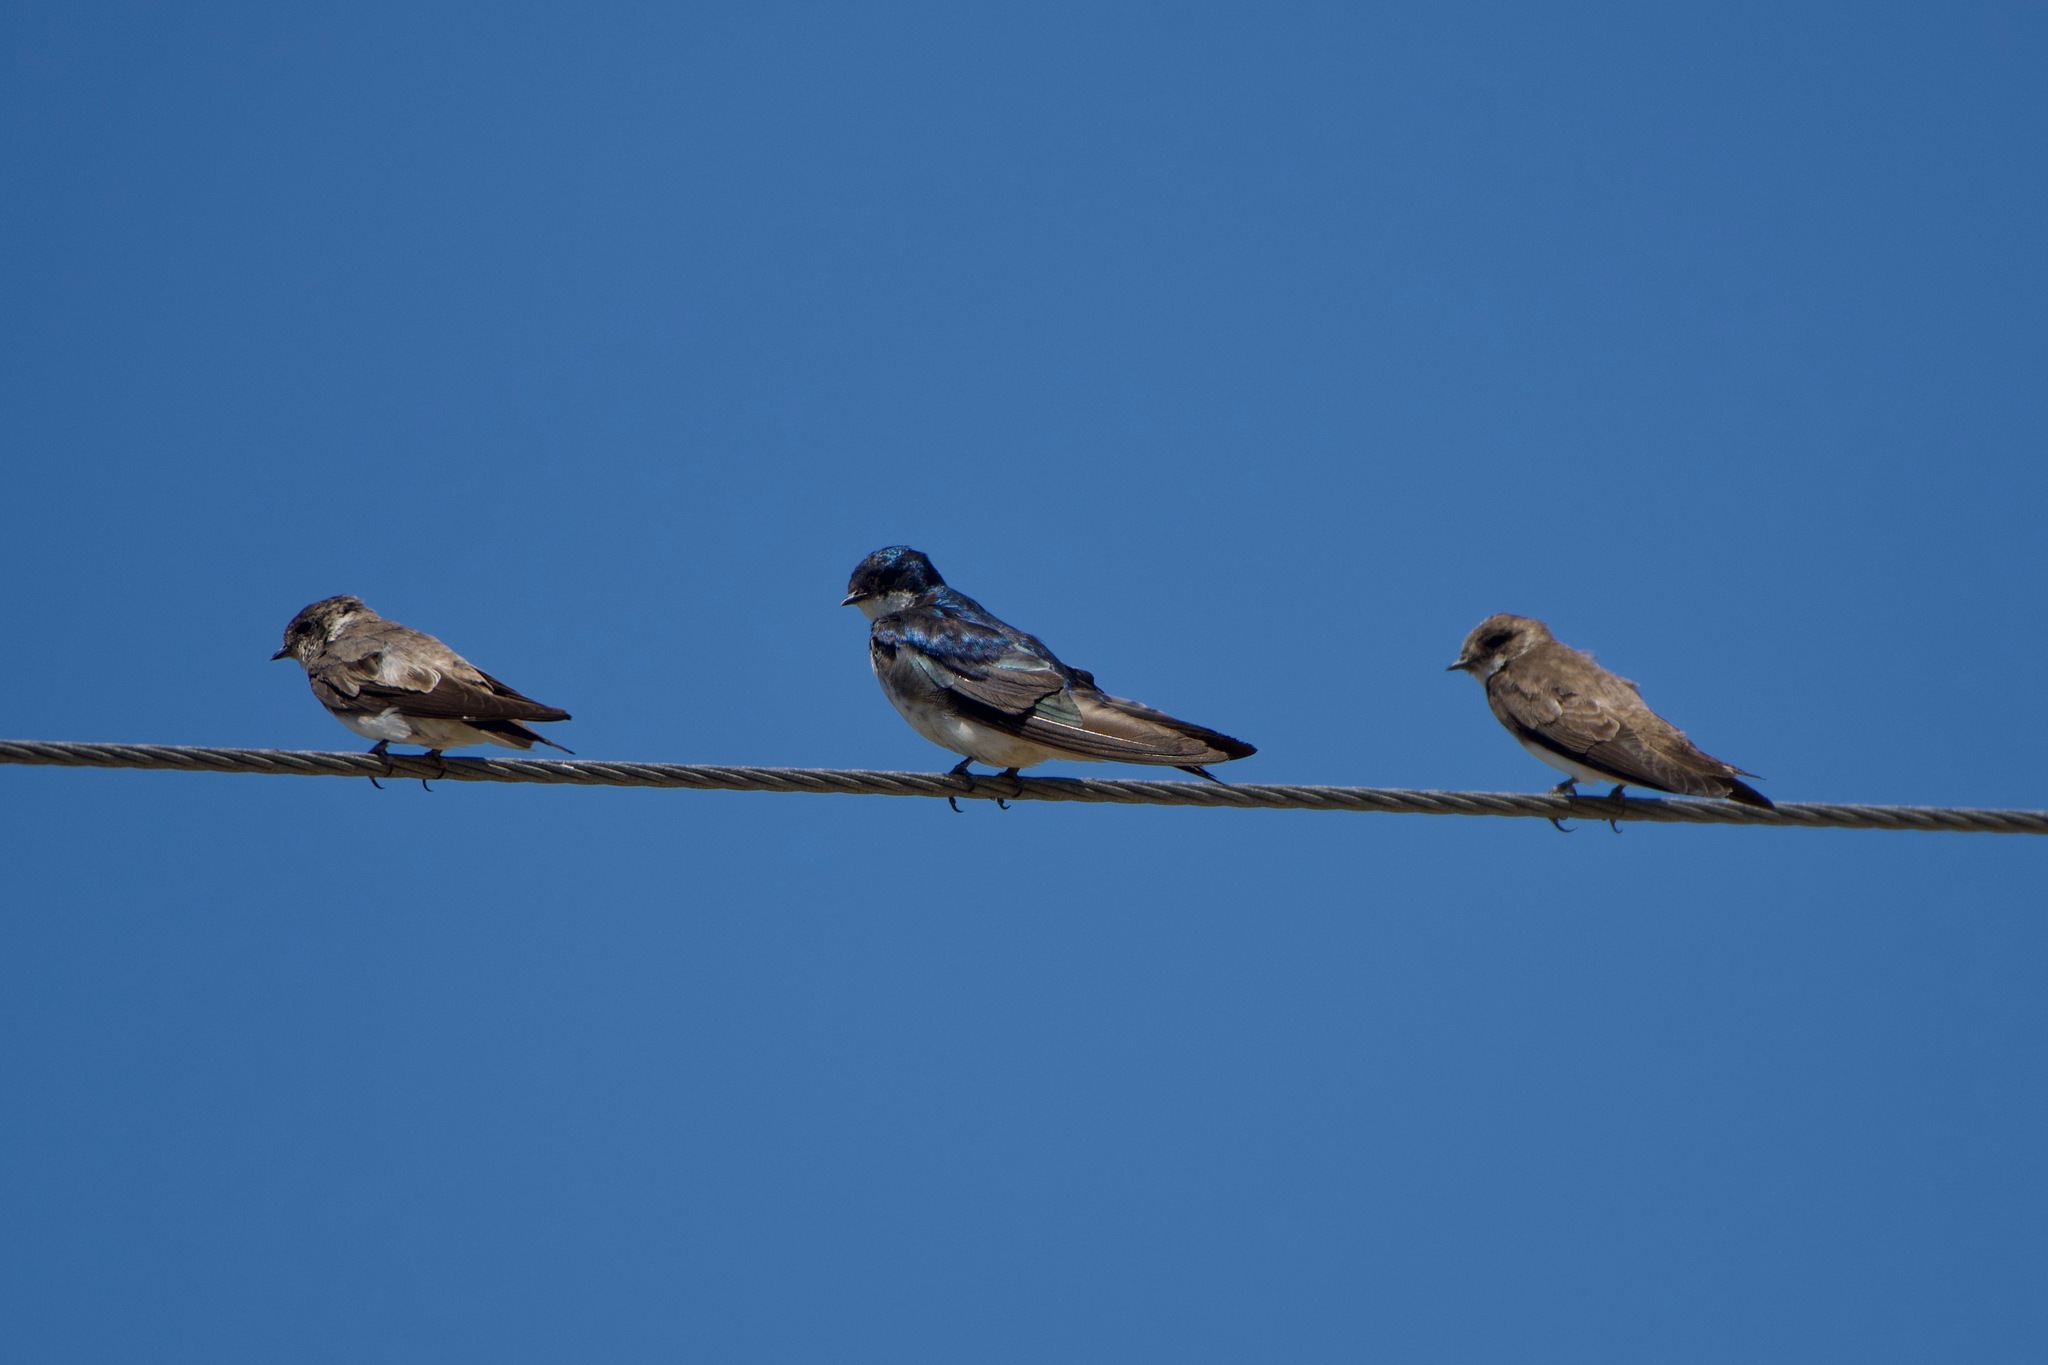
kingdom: Animalia
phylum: Chordata
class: Aves
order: Passeriformes
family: Hirundinidae
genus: Tachycineta
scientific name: Tachycineta bicolor
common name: Tree swallow
